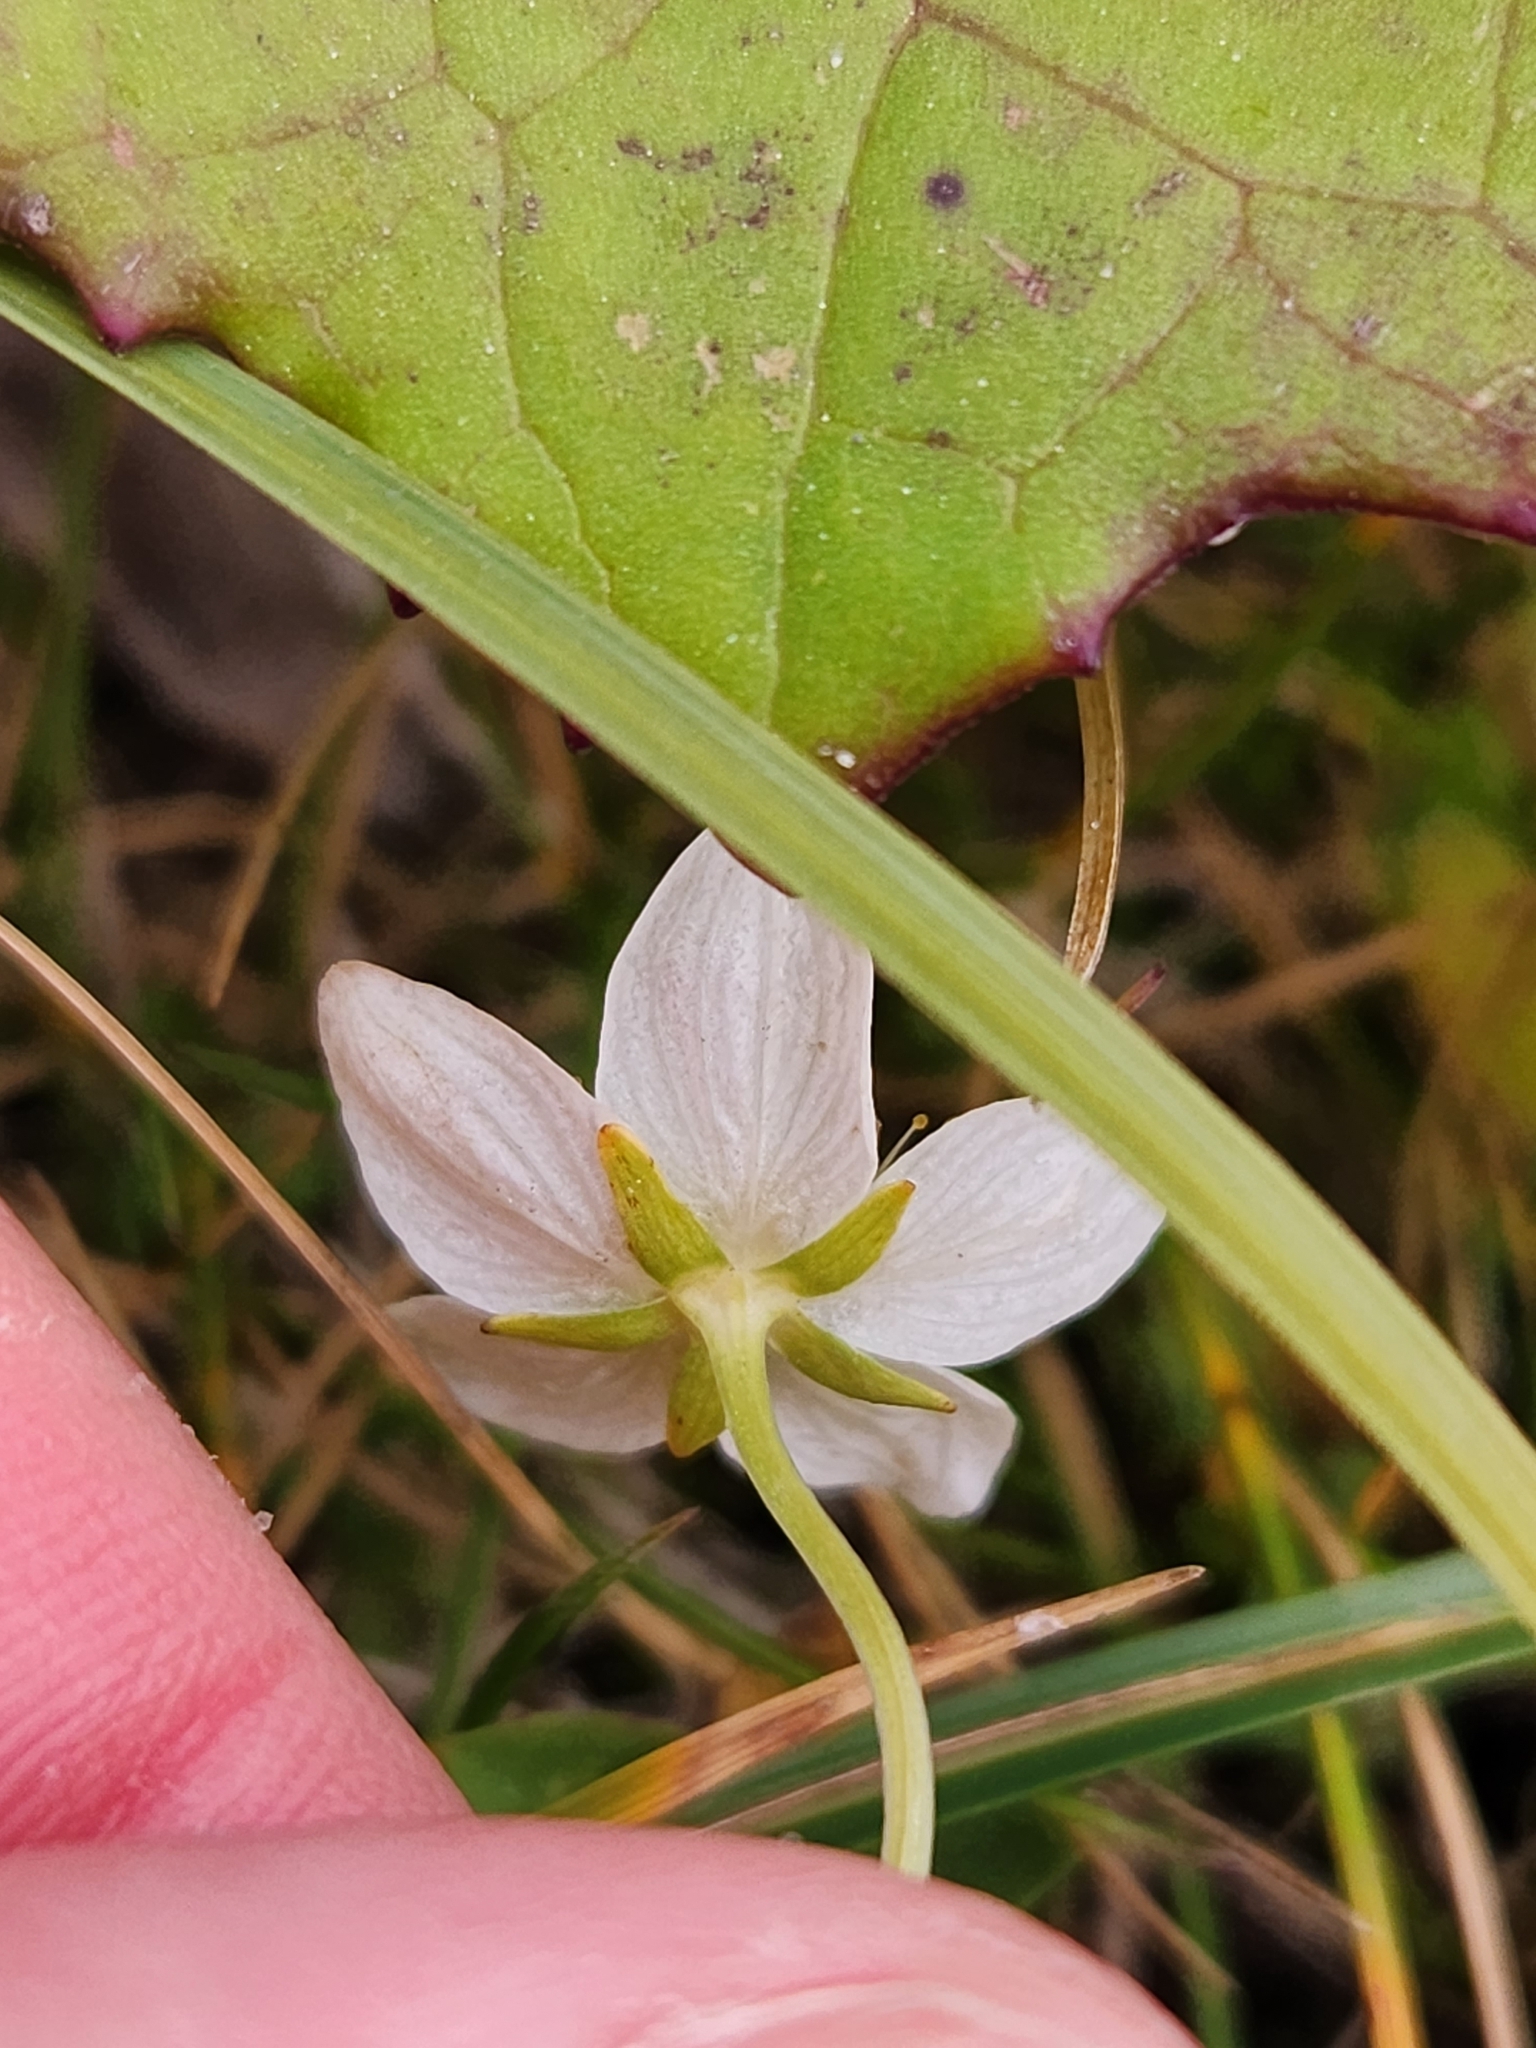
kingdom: Plantae
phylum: Tracheophyta
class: Magnoliopsida
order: Celastrales
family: Parnassiaceae
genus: Parnassia
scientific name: Parnassia palustris
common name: Grass-of-parnassus
